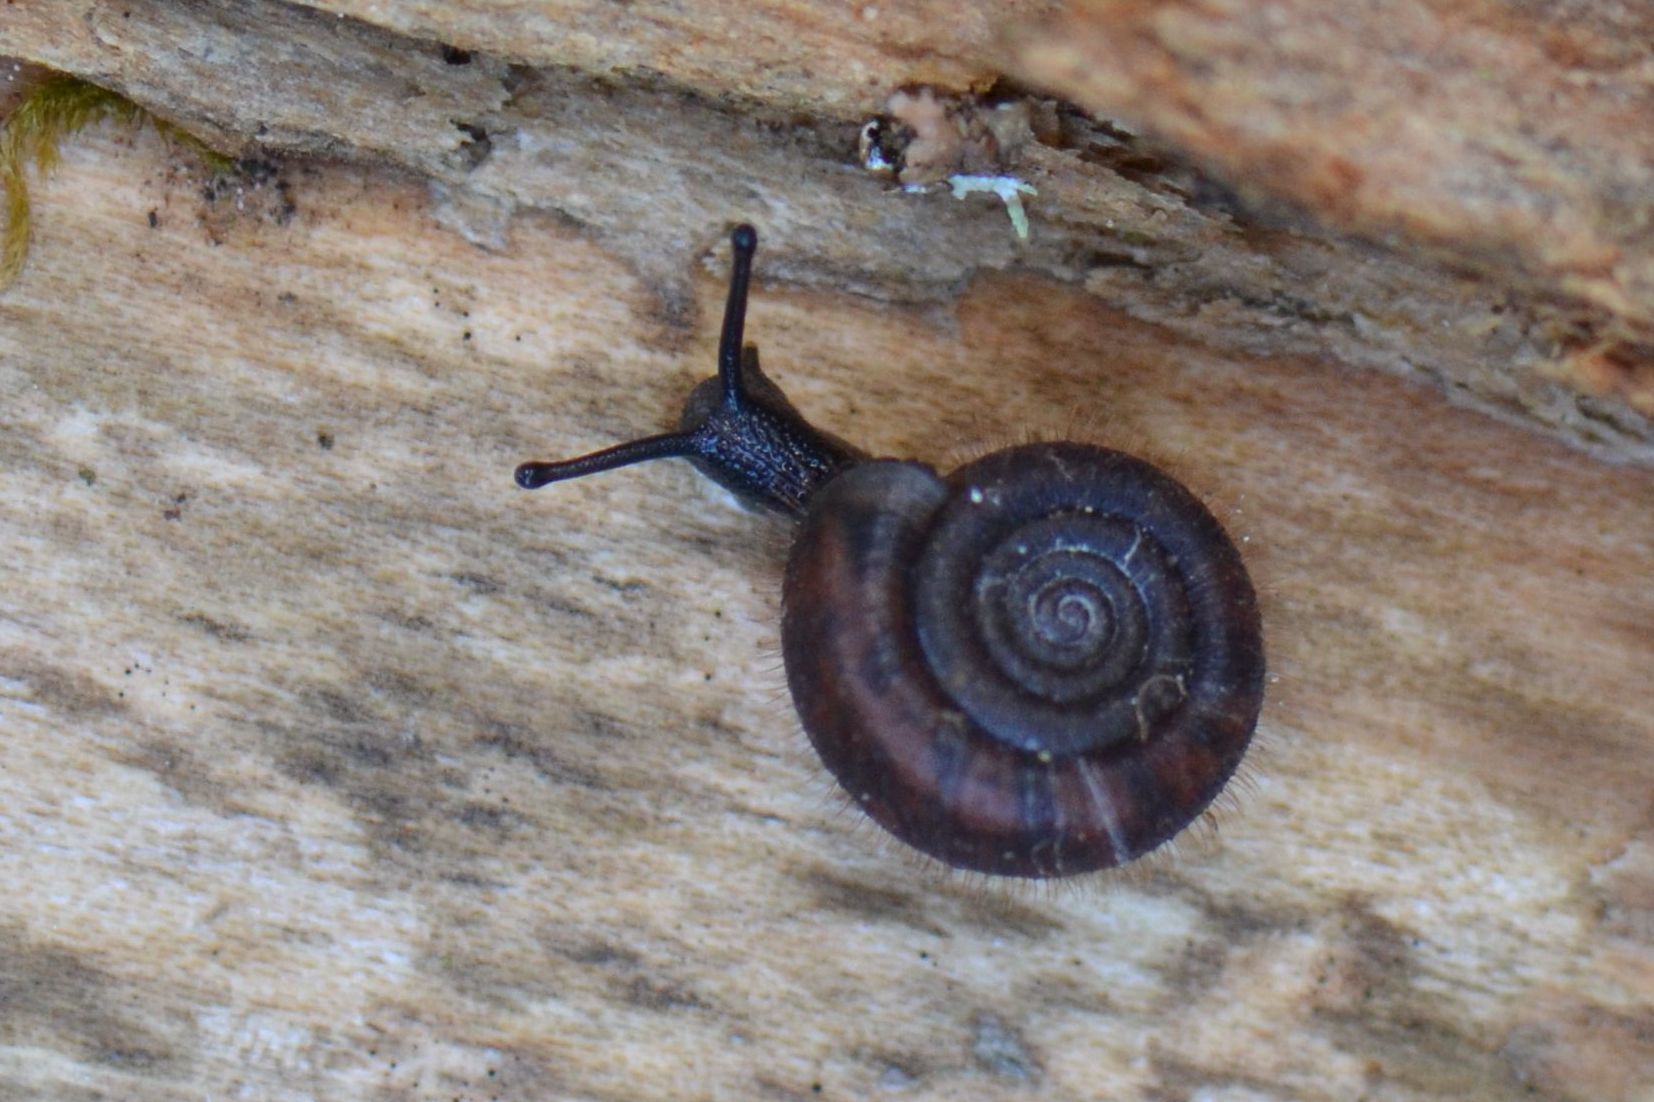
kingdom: Animalia
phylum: Mollusca
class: Gastropoda
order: Stylommatophora
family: Helicodontidae
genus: Helicodonta
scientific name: Helicodonta obvoluta
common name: Cheese snail
